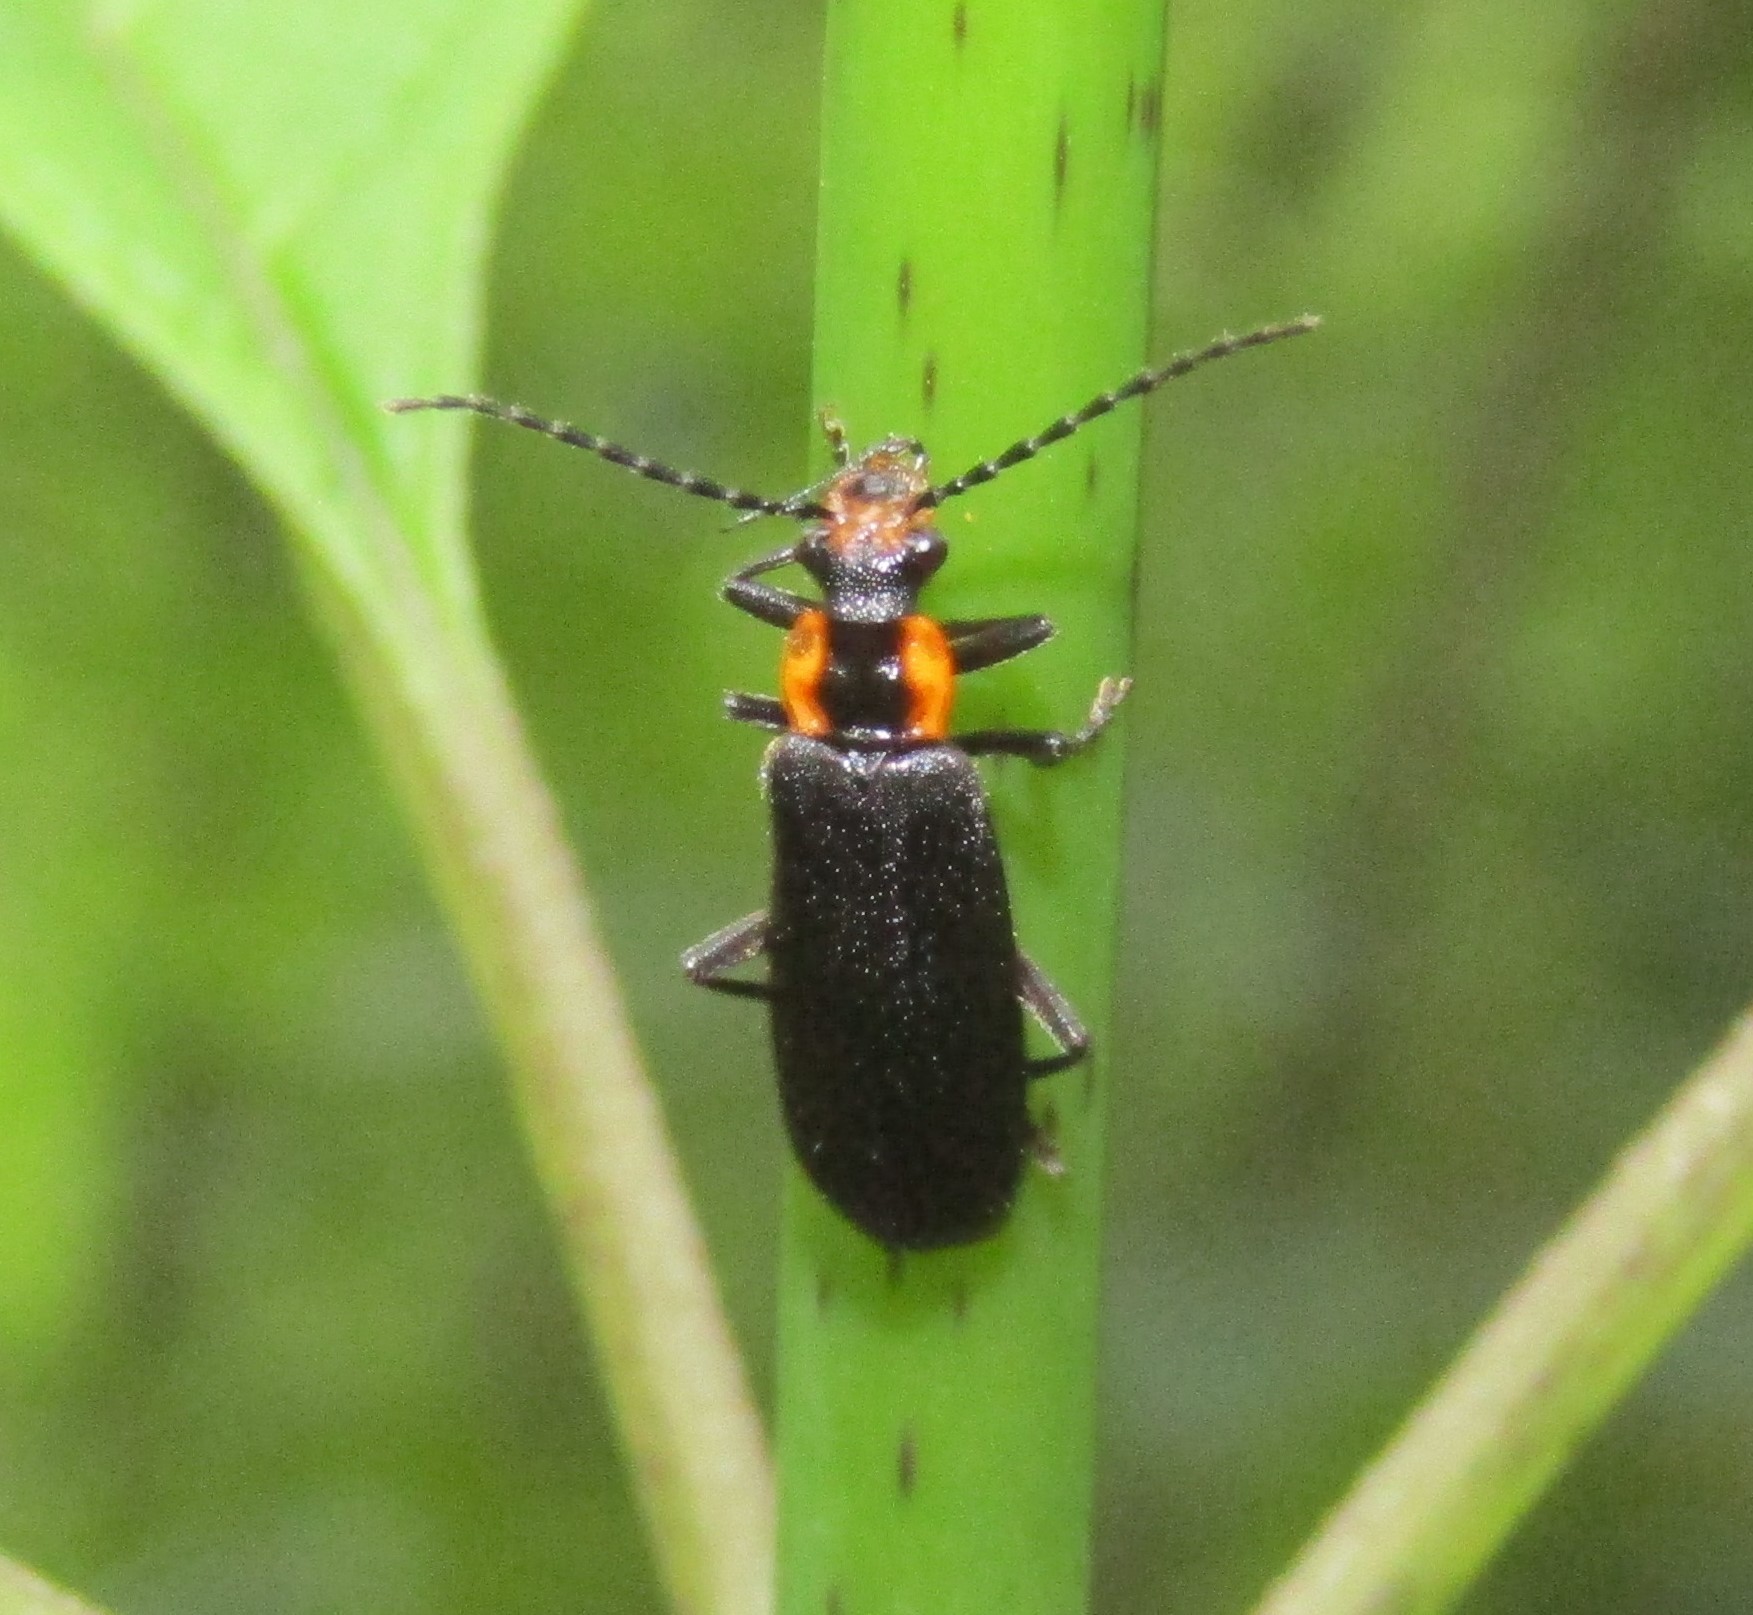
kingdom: Animalia
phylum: Arthropoda
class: Insecta
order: Coleoptera
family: Cantharidae
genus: Podabrus
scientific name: Podabrus frater
